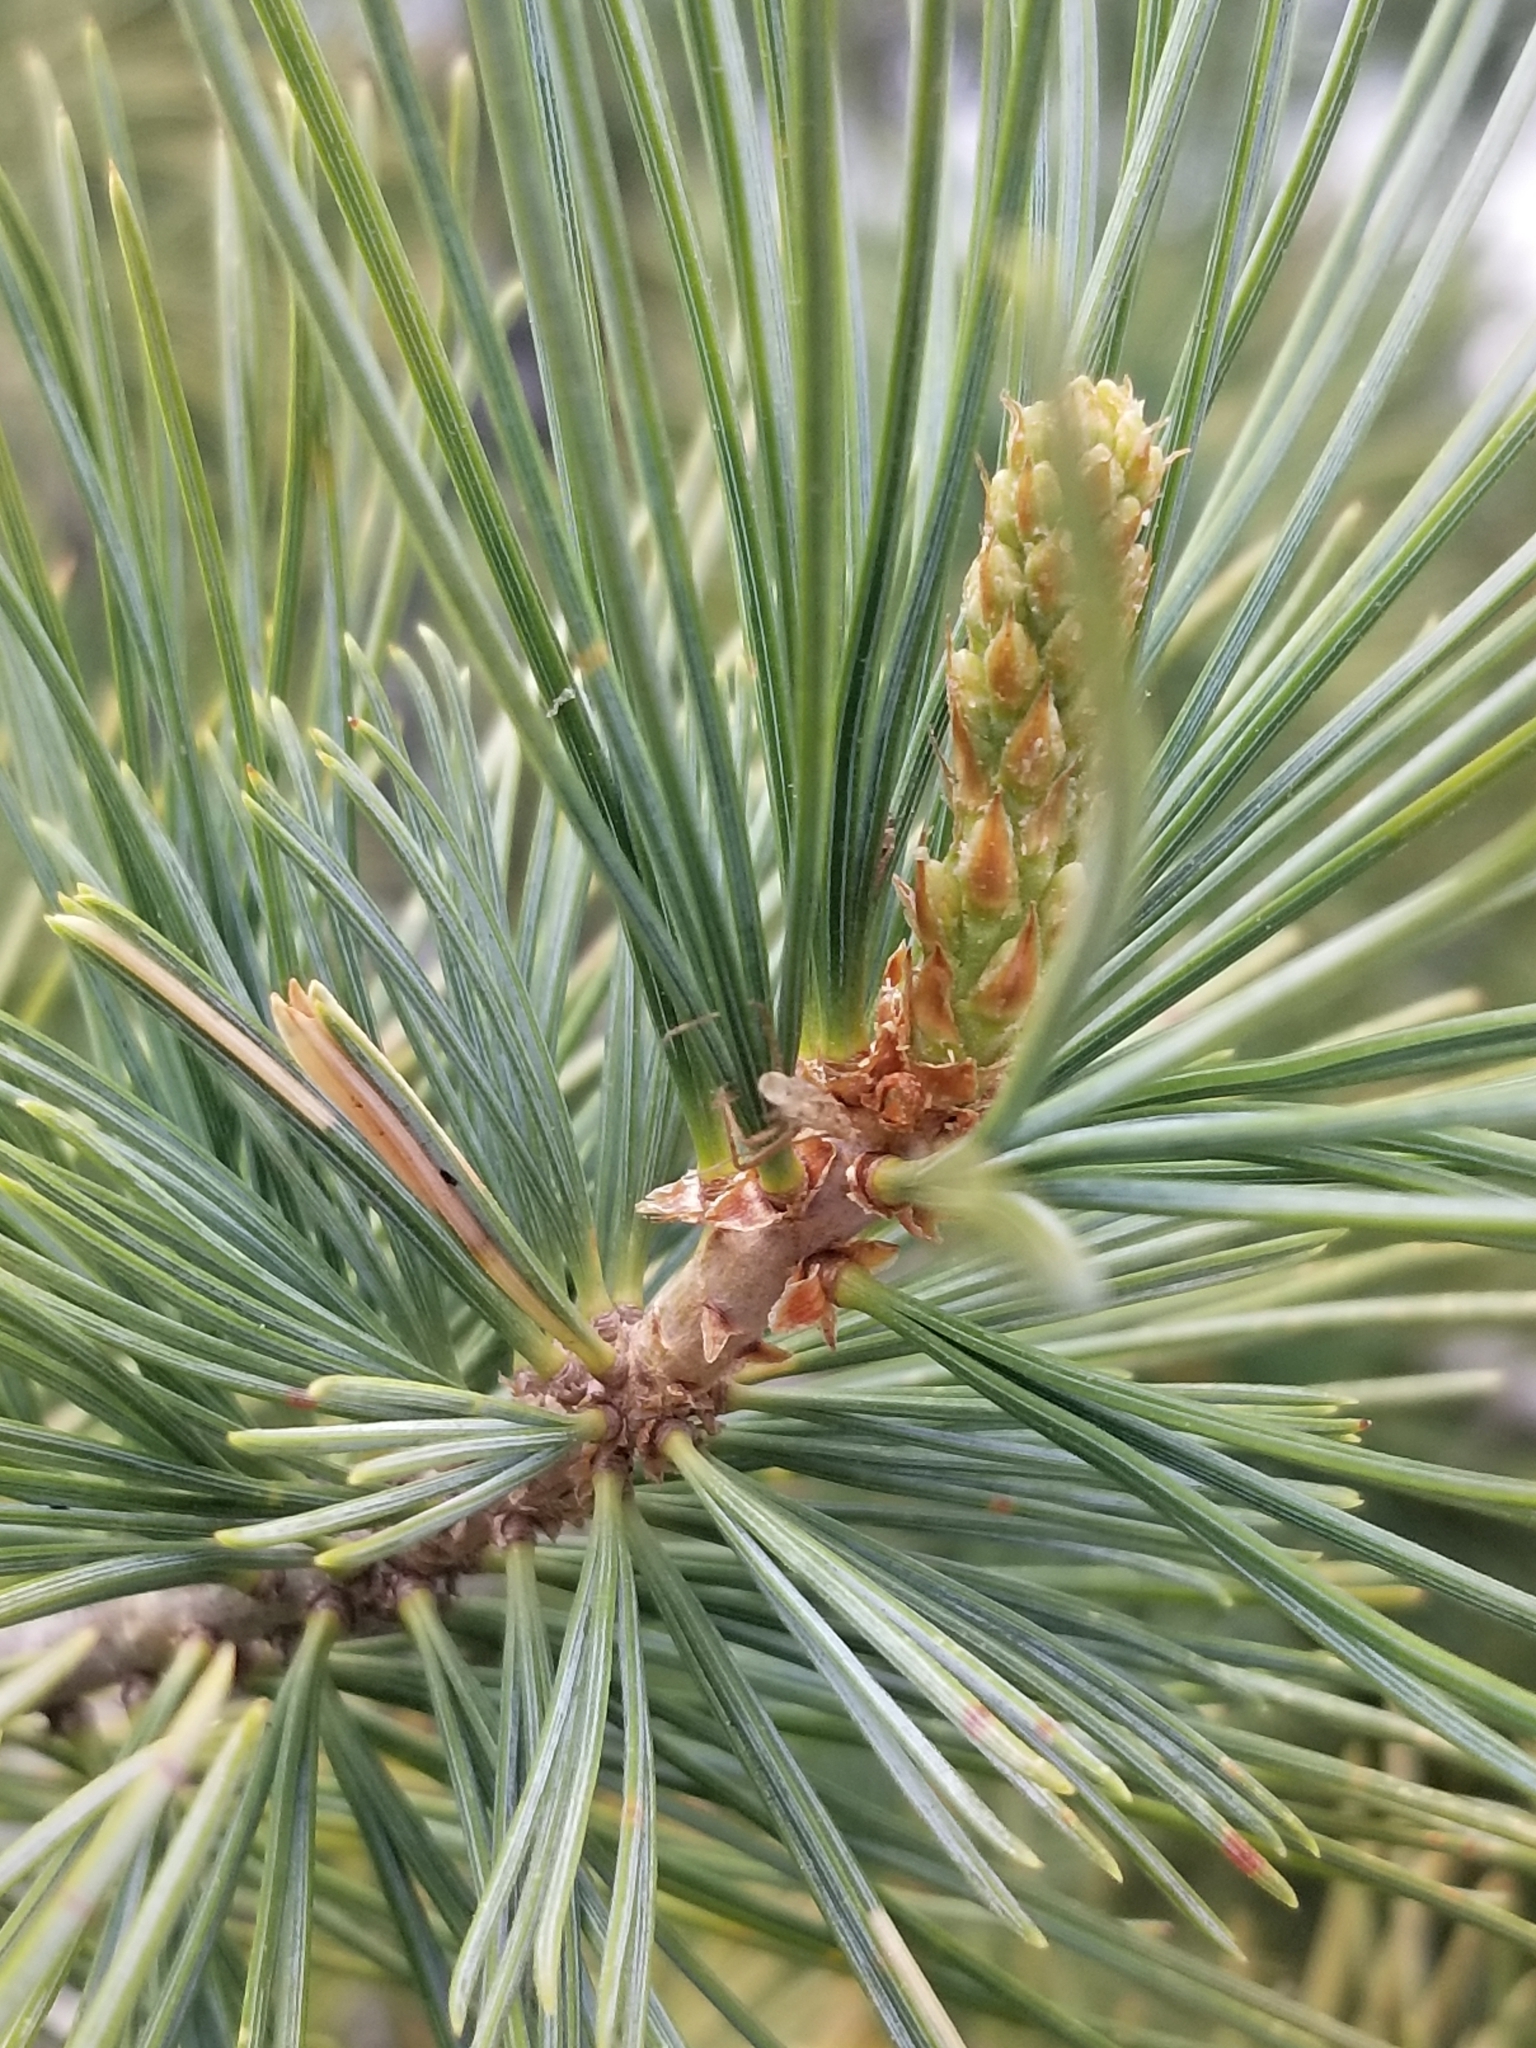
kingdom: Plantae
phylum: Tracheophyta
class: Pinopsida
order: Pinales
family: Pinaceae
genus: Pinus
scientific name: Pinus lambertiana
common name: Sugar pine
